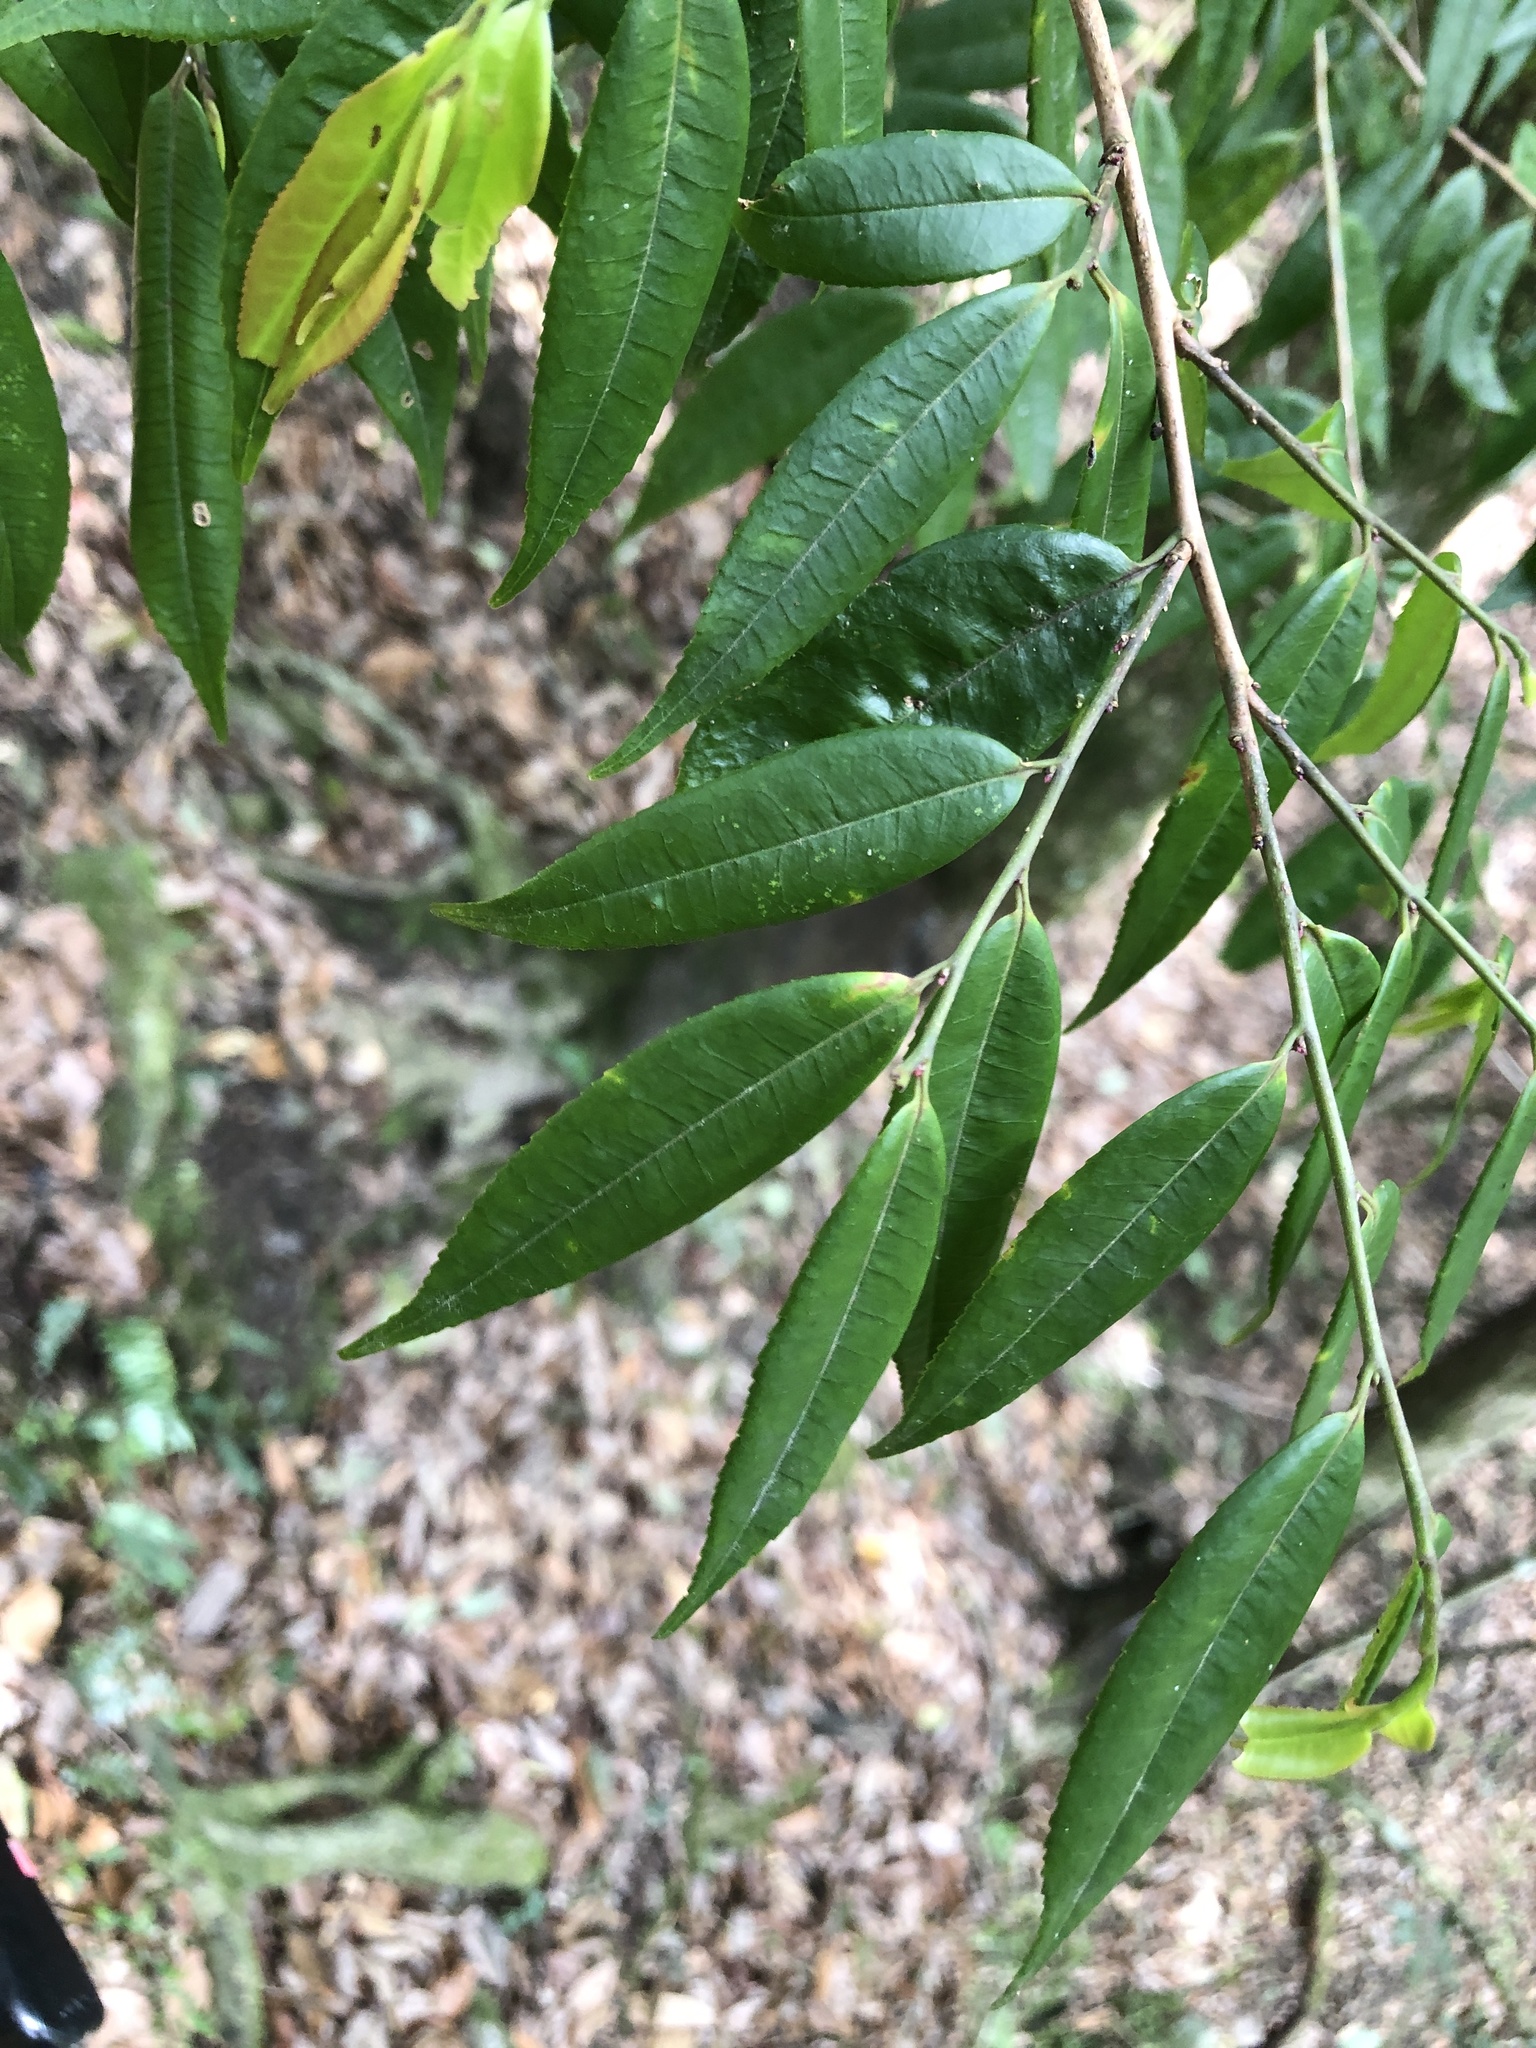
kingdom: Plantae
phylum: Tracheophyta
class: Magnoliopsida
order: Ericales
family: Pentaphylacaceae
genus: Eurya
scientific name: Eurya loquaiana
